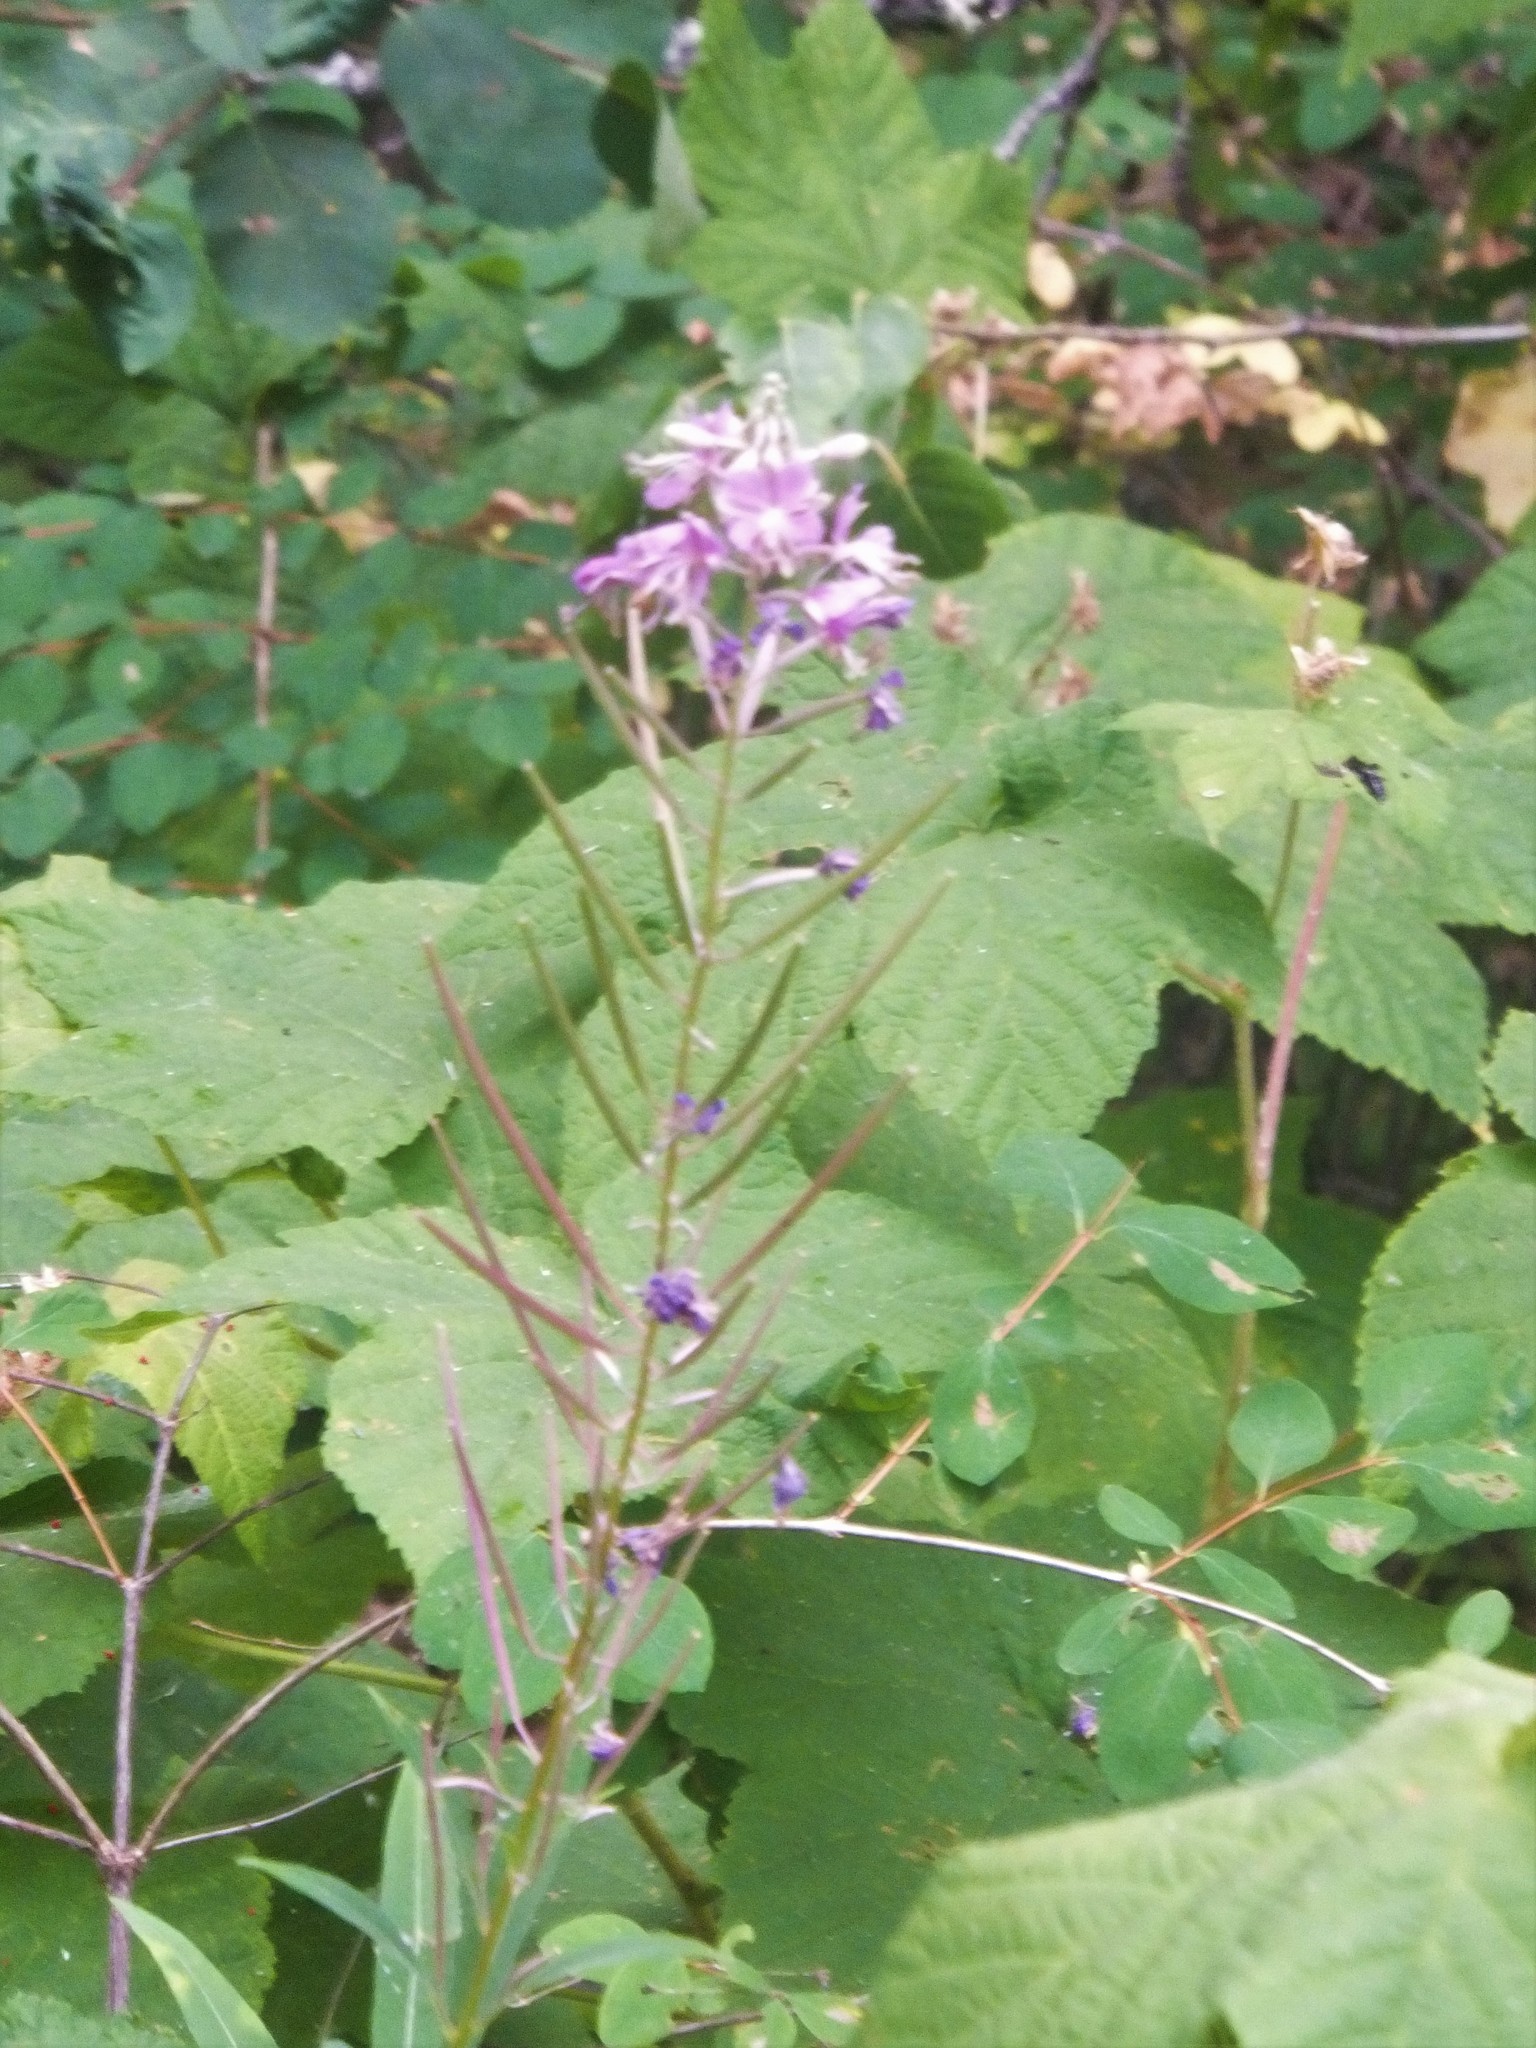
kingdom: Plantae
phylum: Tracheophyta
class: Magnoliopsida
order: Myrtales
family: Onagraceae
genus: Chamaenerion
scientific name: Chamaenerion angustifolium
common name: Fireweed
